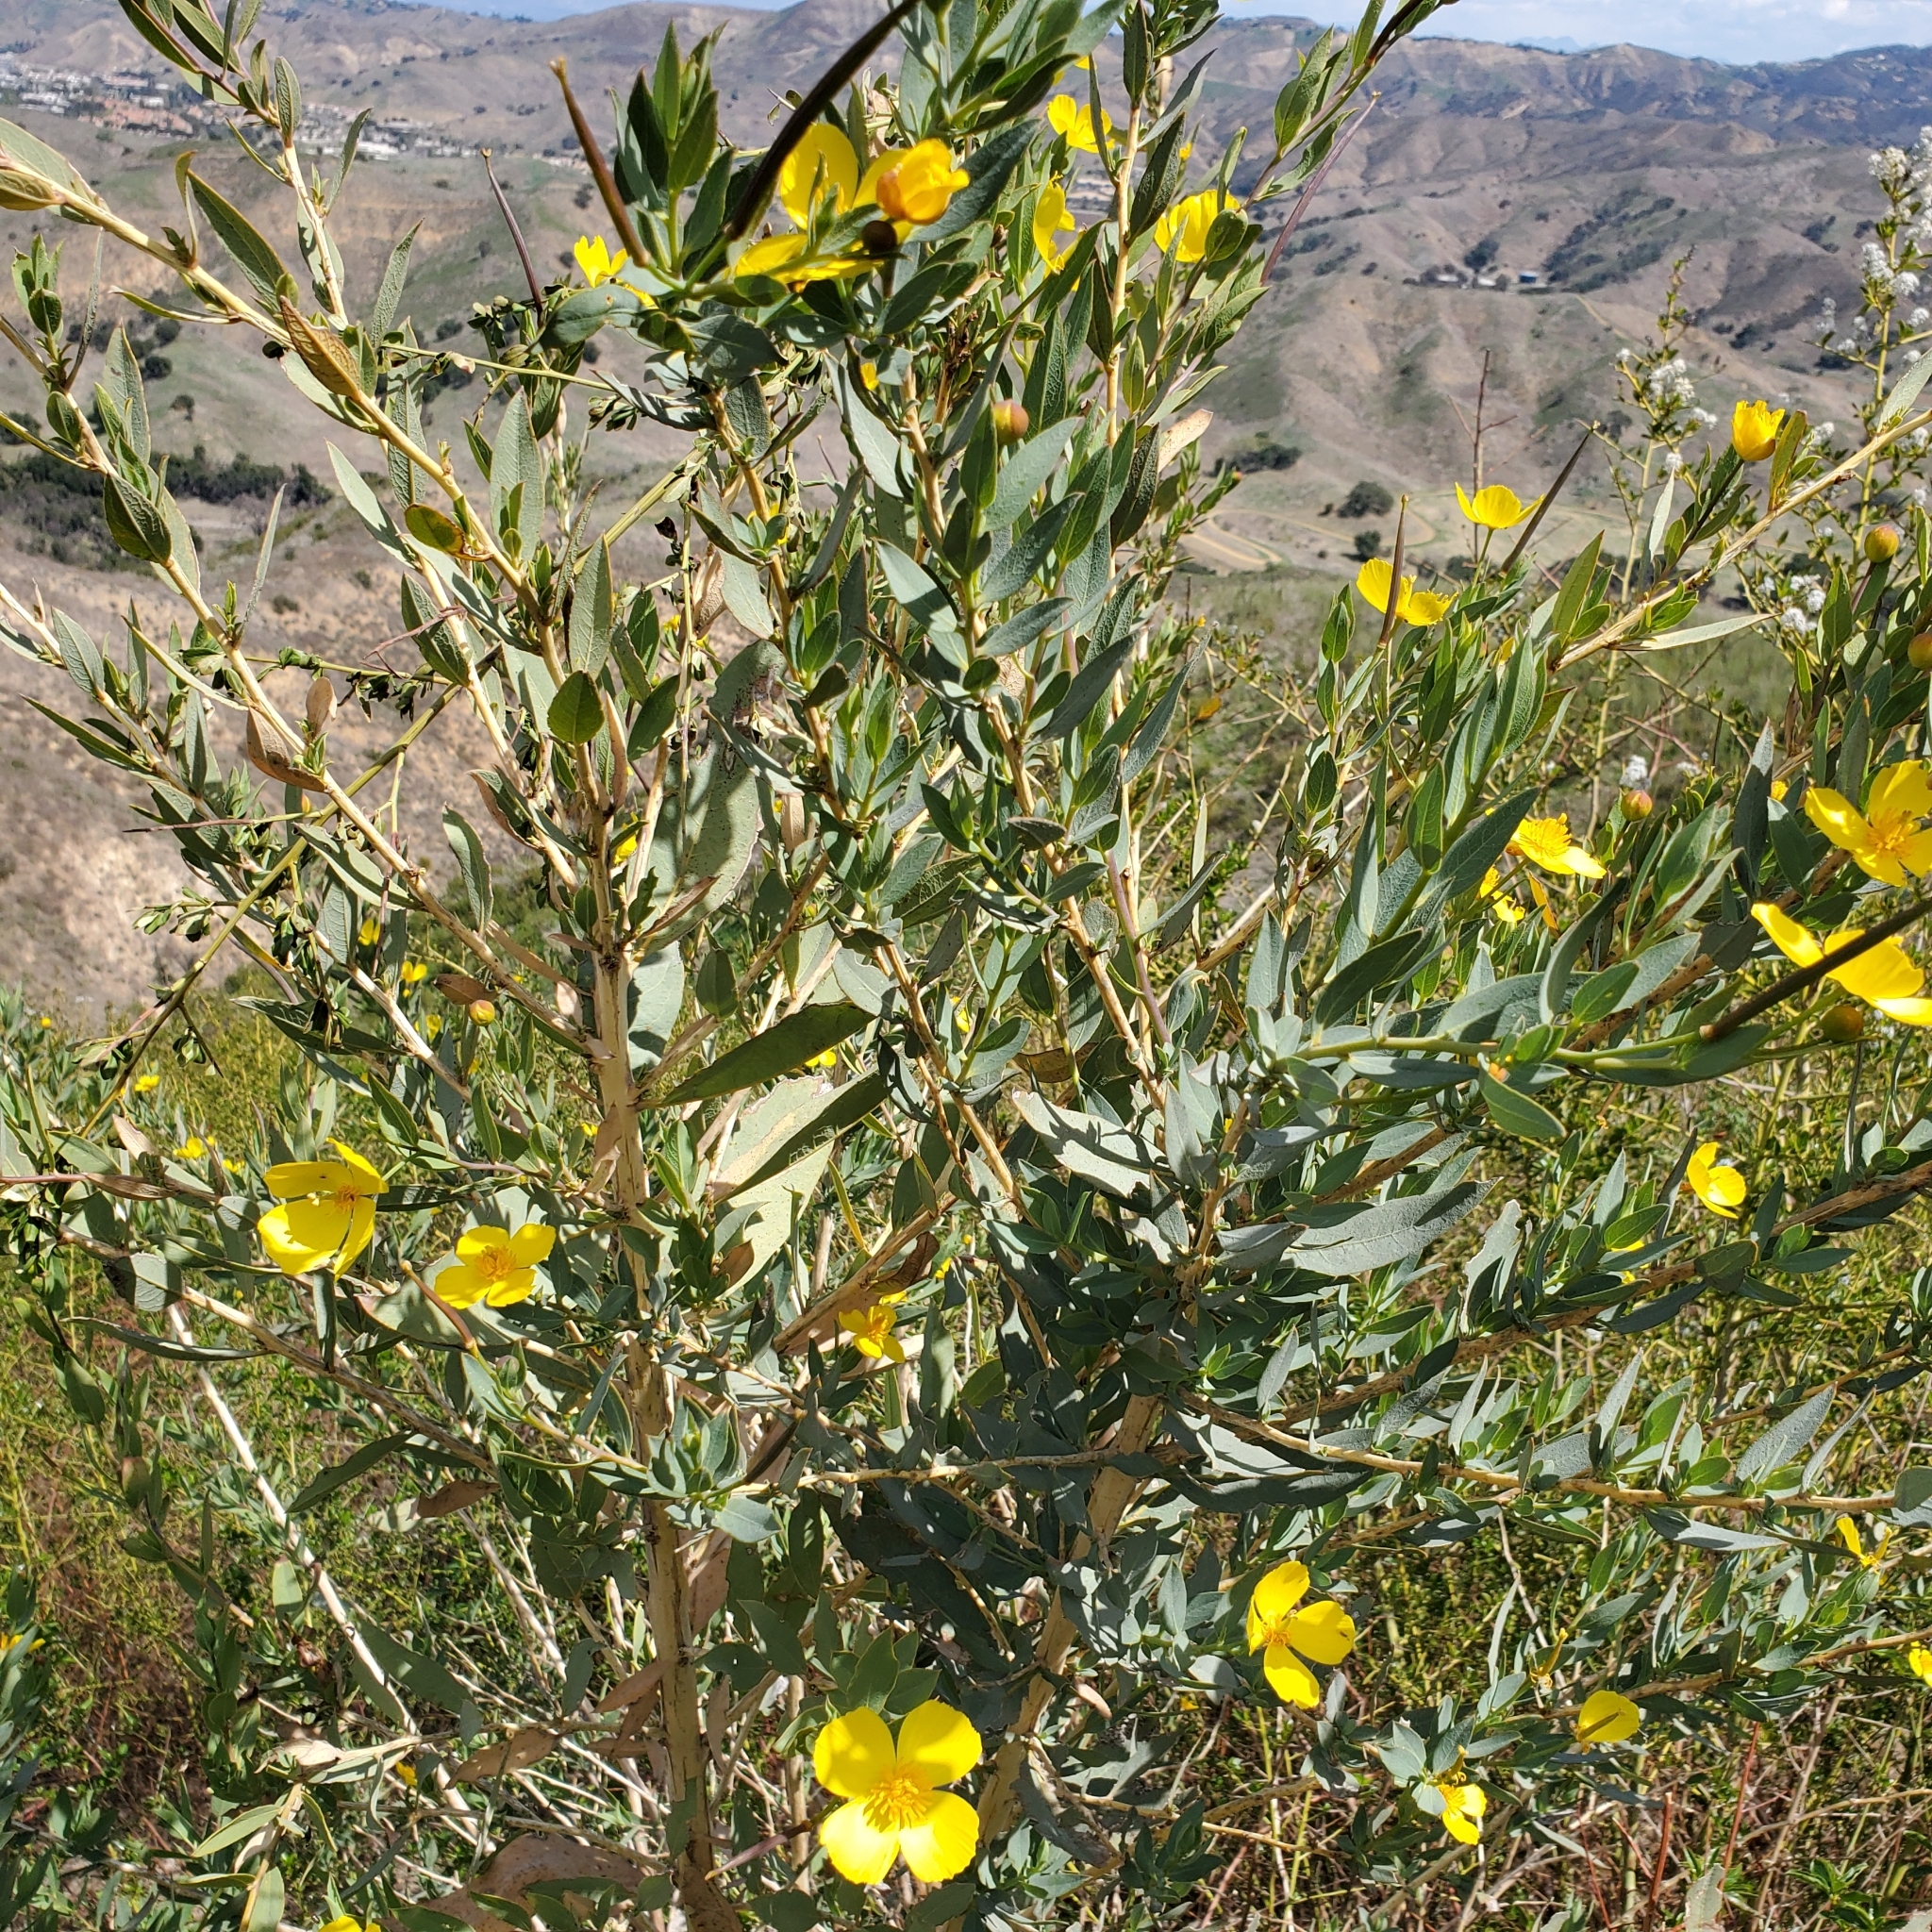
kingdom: Plantae
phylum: Tracheophyta
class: Magnoliopsida
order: Ranunculales
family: Papaveraceae
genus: Dendromecon
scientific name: Dendromecon rigida
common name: Tree poppy
